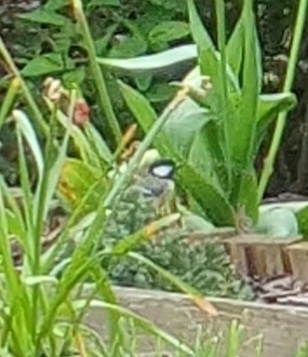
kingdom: Animalia
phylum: Chordata
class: Aves
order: Passeriformes
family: Paridae
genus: Parus
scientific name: Parus major
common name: Great tit
